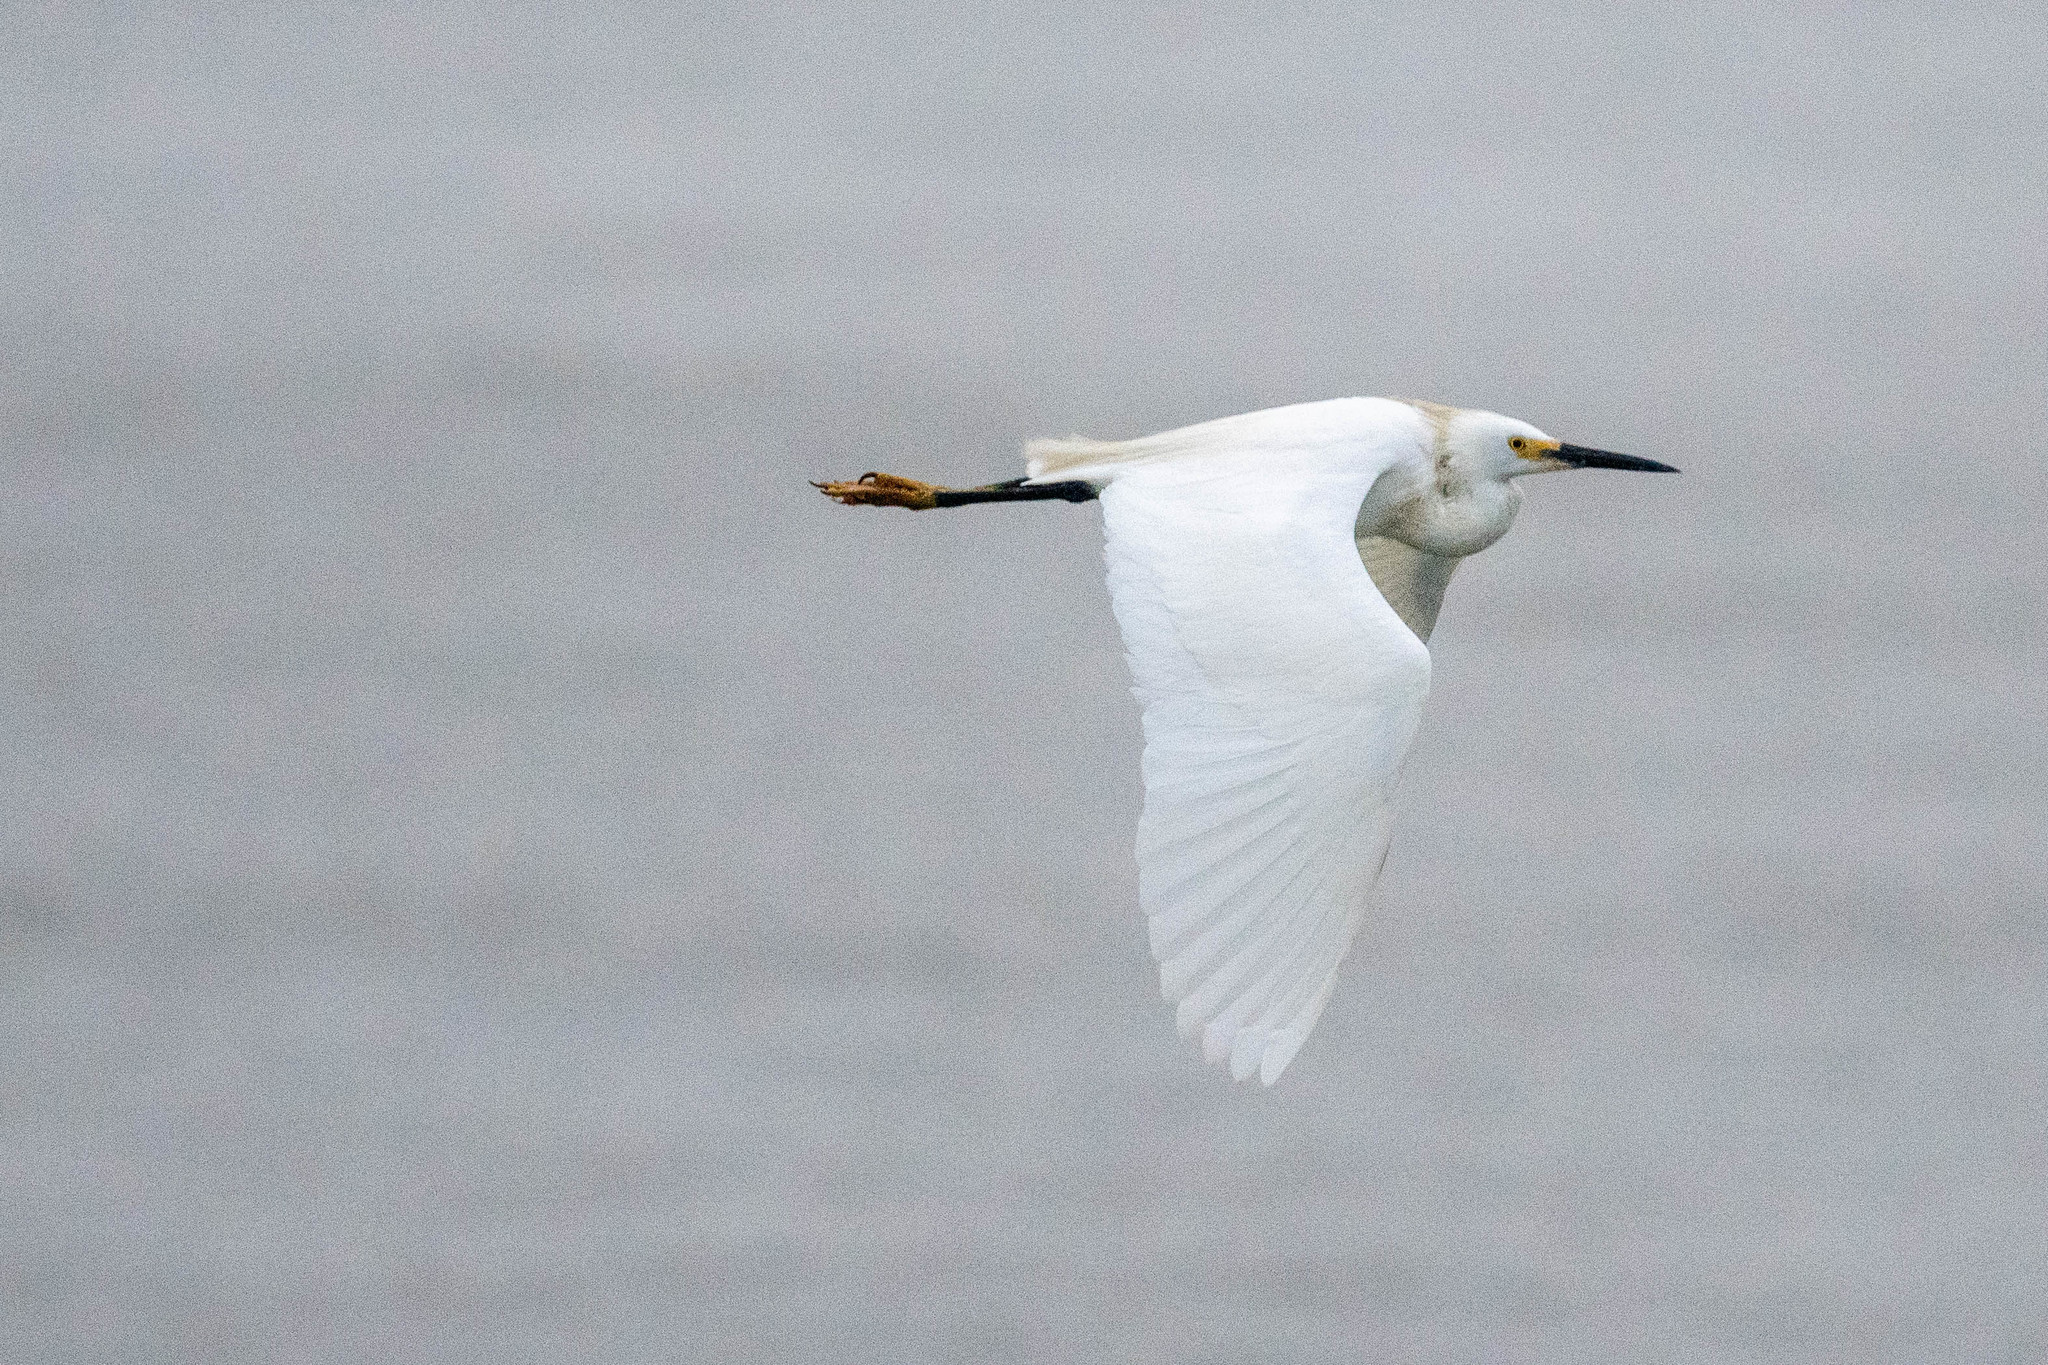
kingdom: Animalia
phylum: Chordata
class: Aves
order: Pelecaniformes
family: Ardeidae
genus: Egretta
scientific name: Egretta thula
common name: Snowy egret
